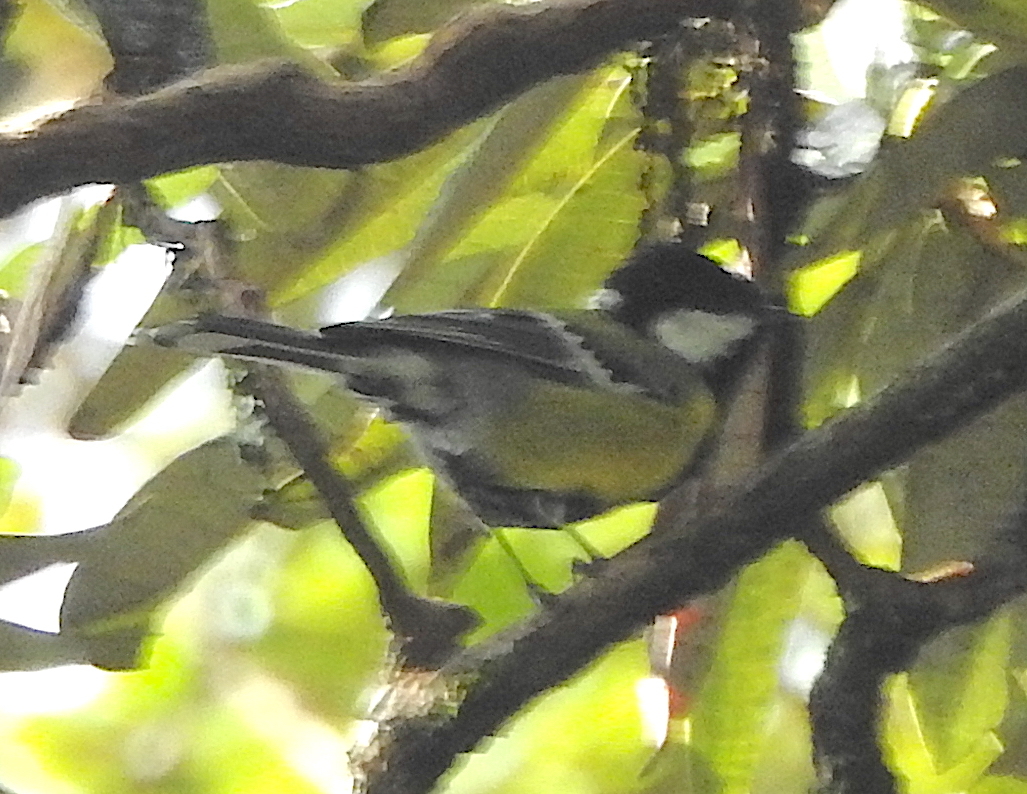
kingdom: Animalia
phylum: Chordata
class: Aves
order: Passeriformes
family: Paridae
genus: Parus
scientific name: Parus monticolus
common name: Green-backed tit
